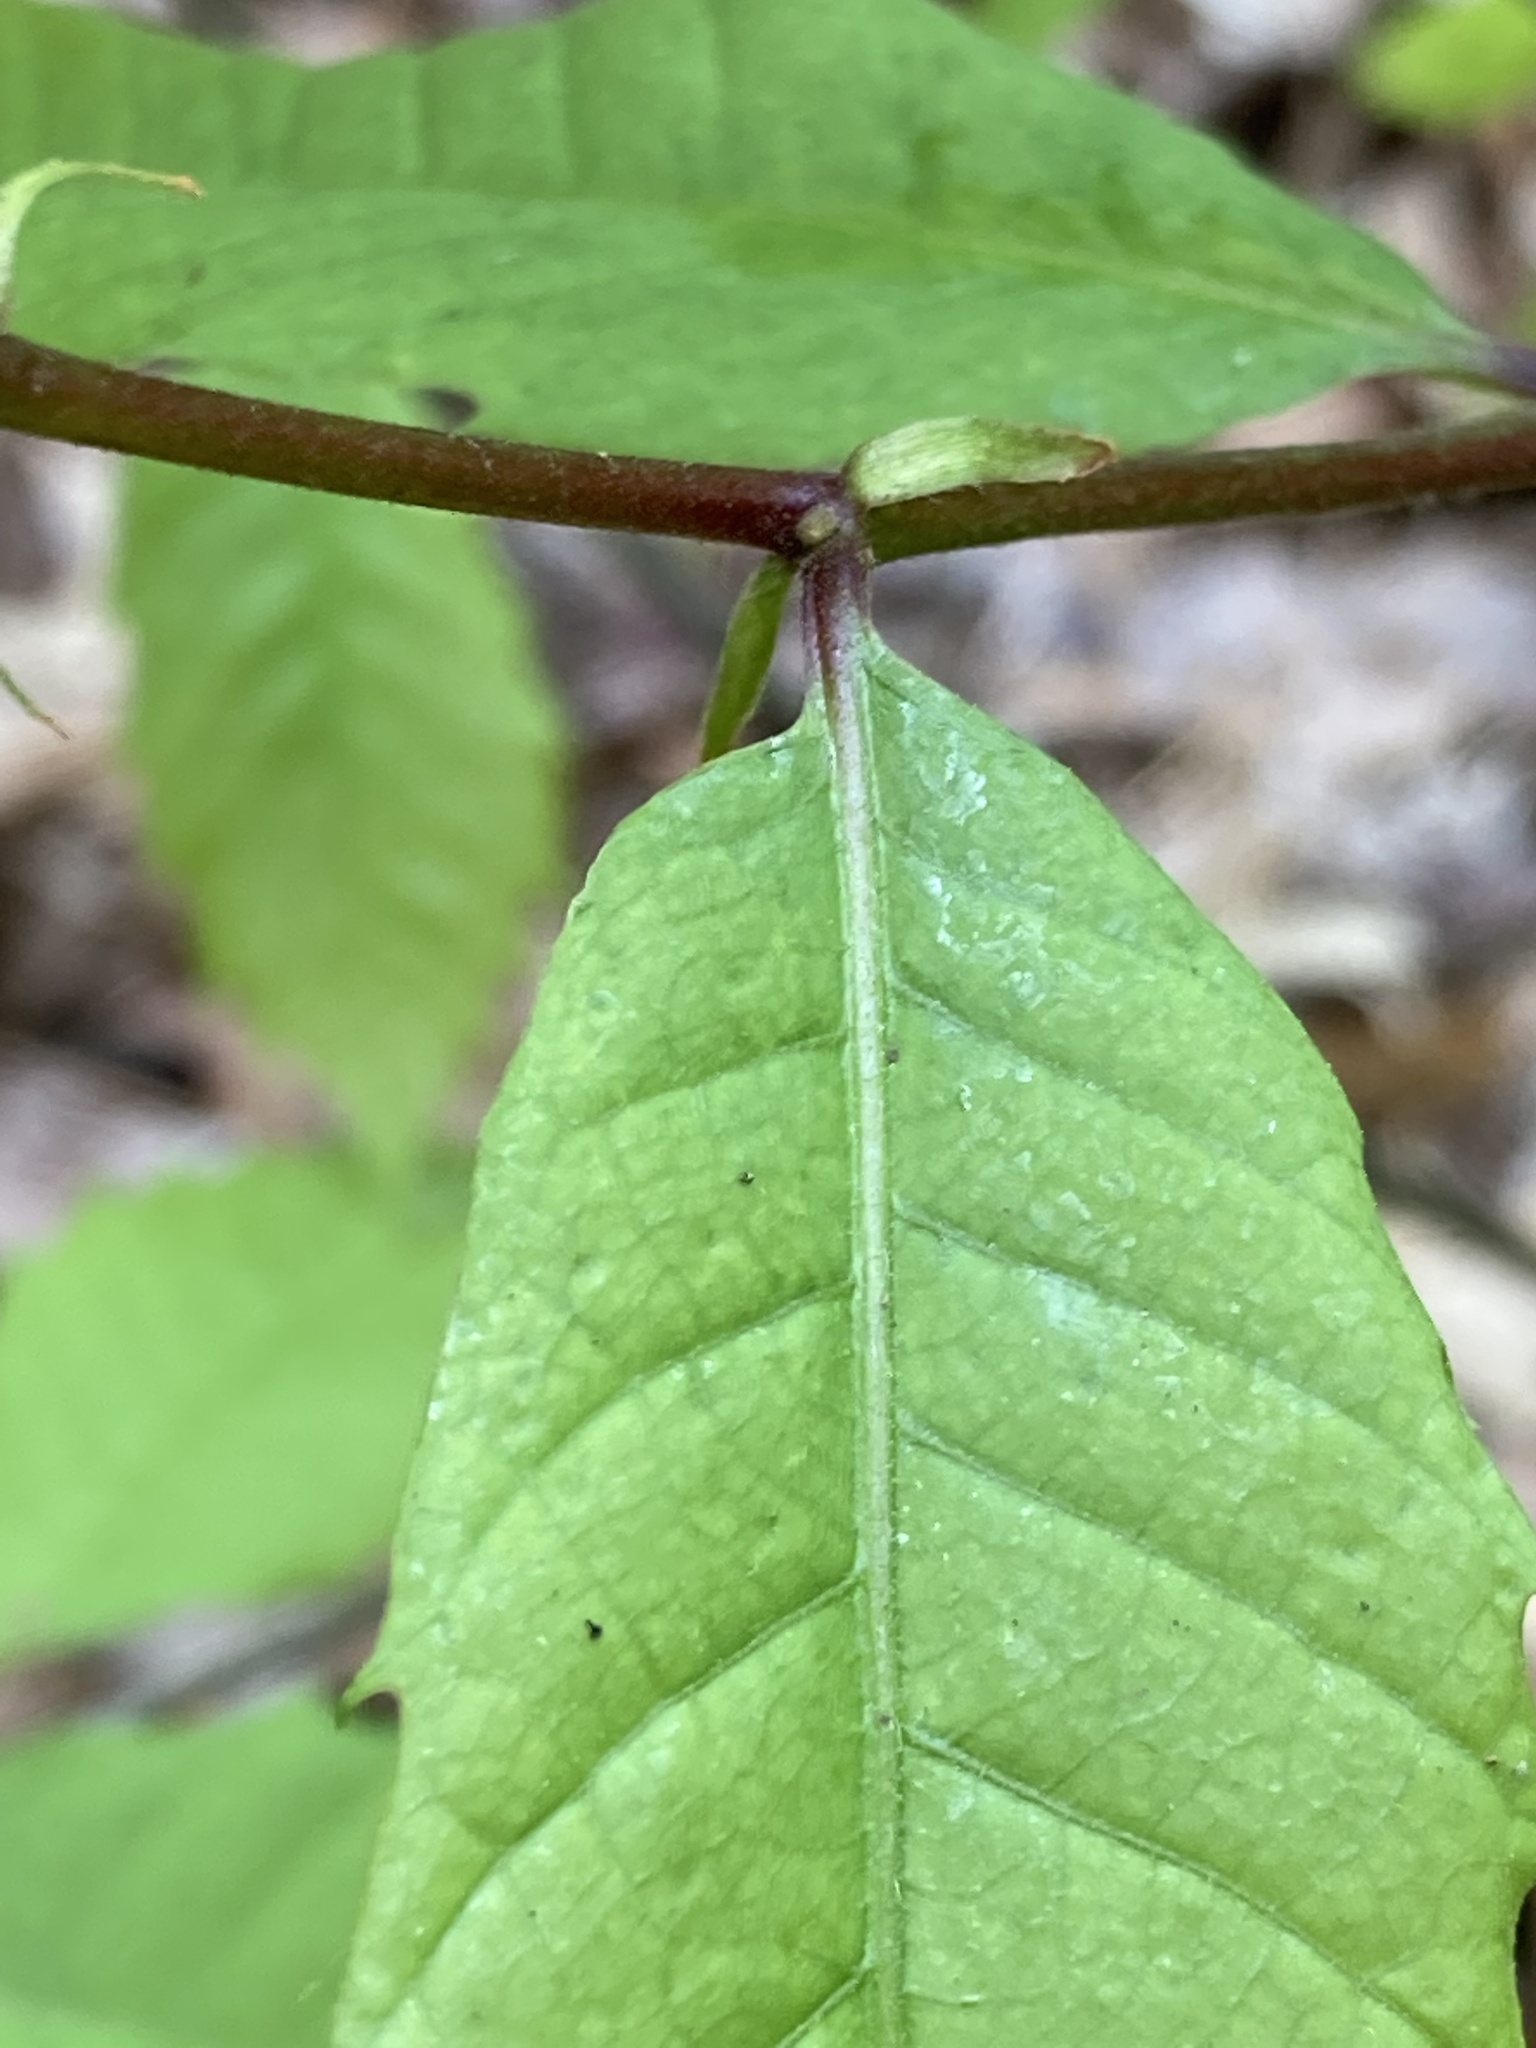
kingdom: Plantae
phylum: Tracheophyta
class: Magnoliopsida
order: Fagales
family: Fagaceae
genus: Castanea
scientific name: Castanea dentata
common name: American chestnut
